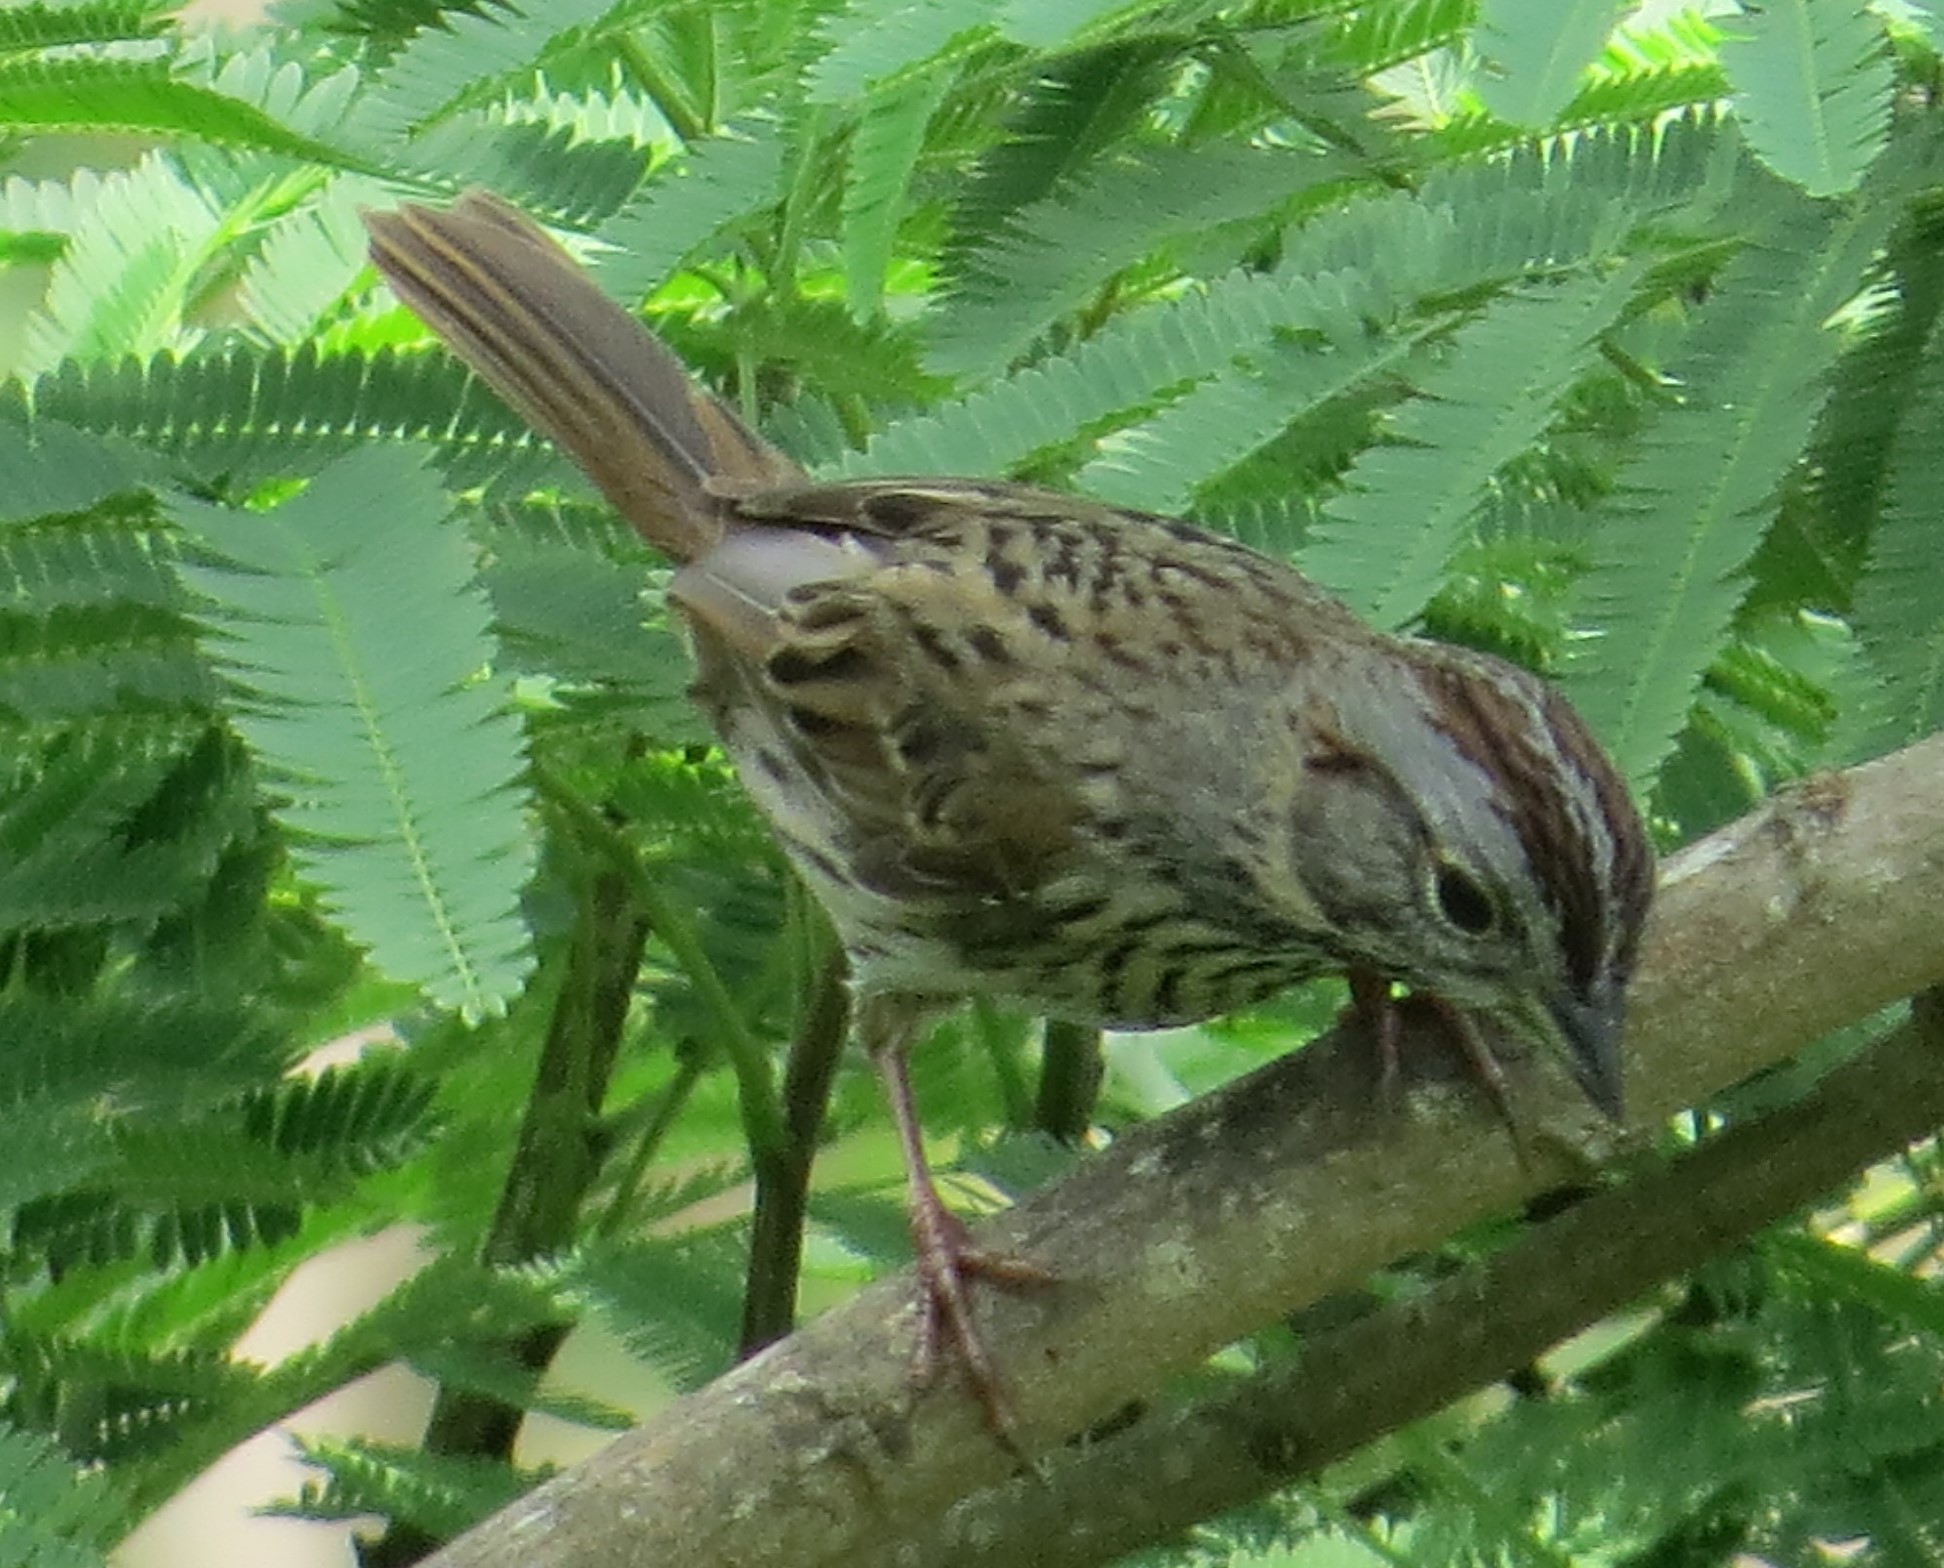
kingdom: Animalia
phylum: Chordata
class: Aves
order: Passeriformes
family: Passerellidae
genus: Melospiza
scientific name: Melospiza lincolnii
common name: Lincoln's sparrow
